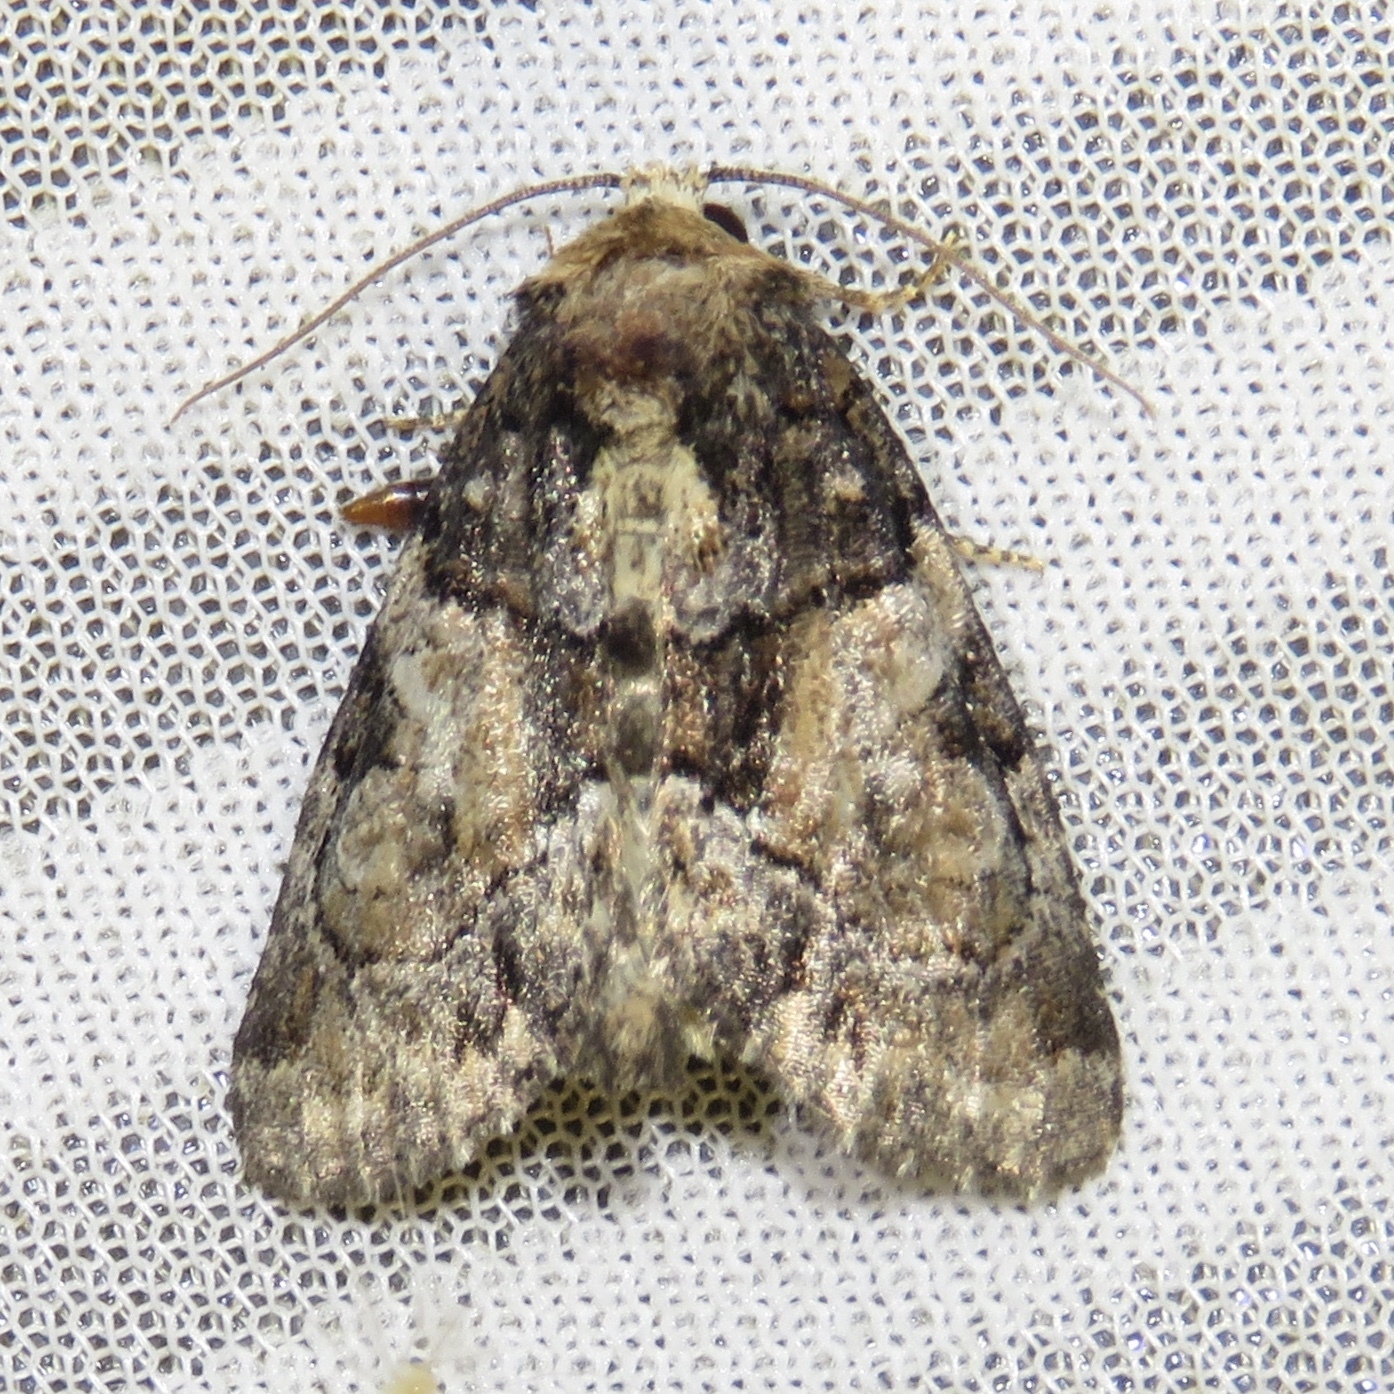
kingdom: Animalia
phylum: Arthropoda
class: Insecta
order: Lepidoptera
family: Noctuidae
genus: Chytonix
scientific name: Chytonix palliatricula
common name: Cloaked marvel
